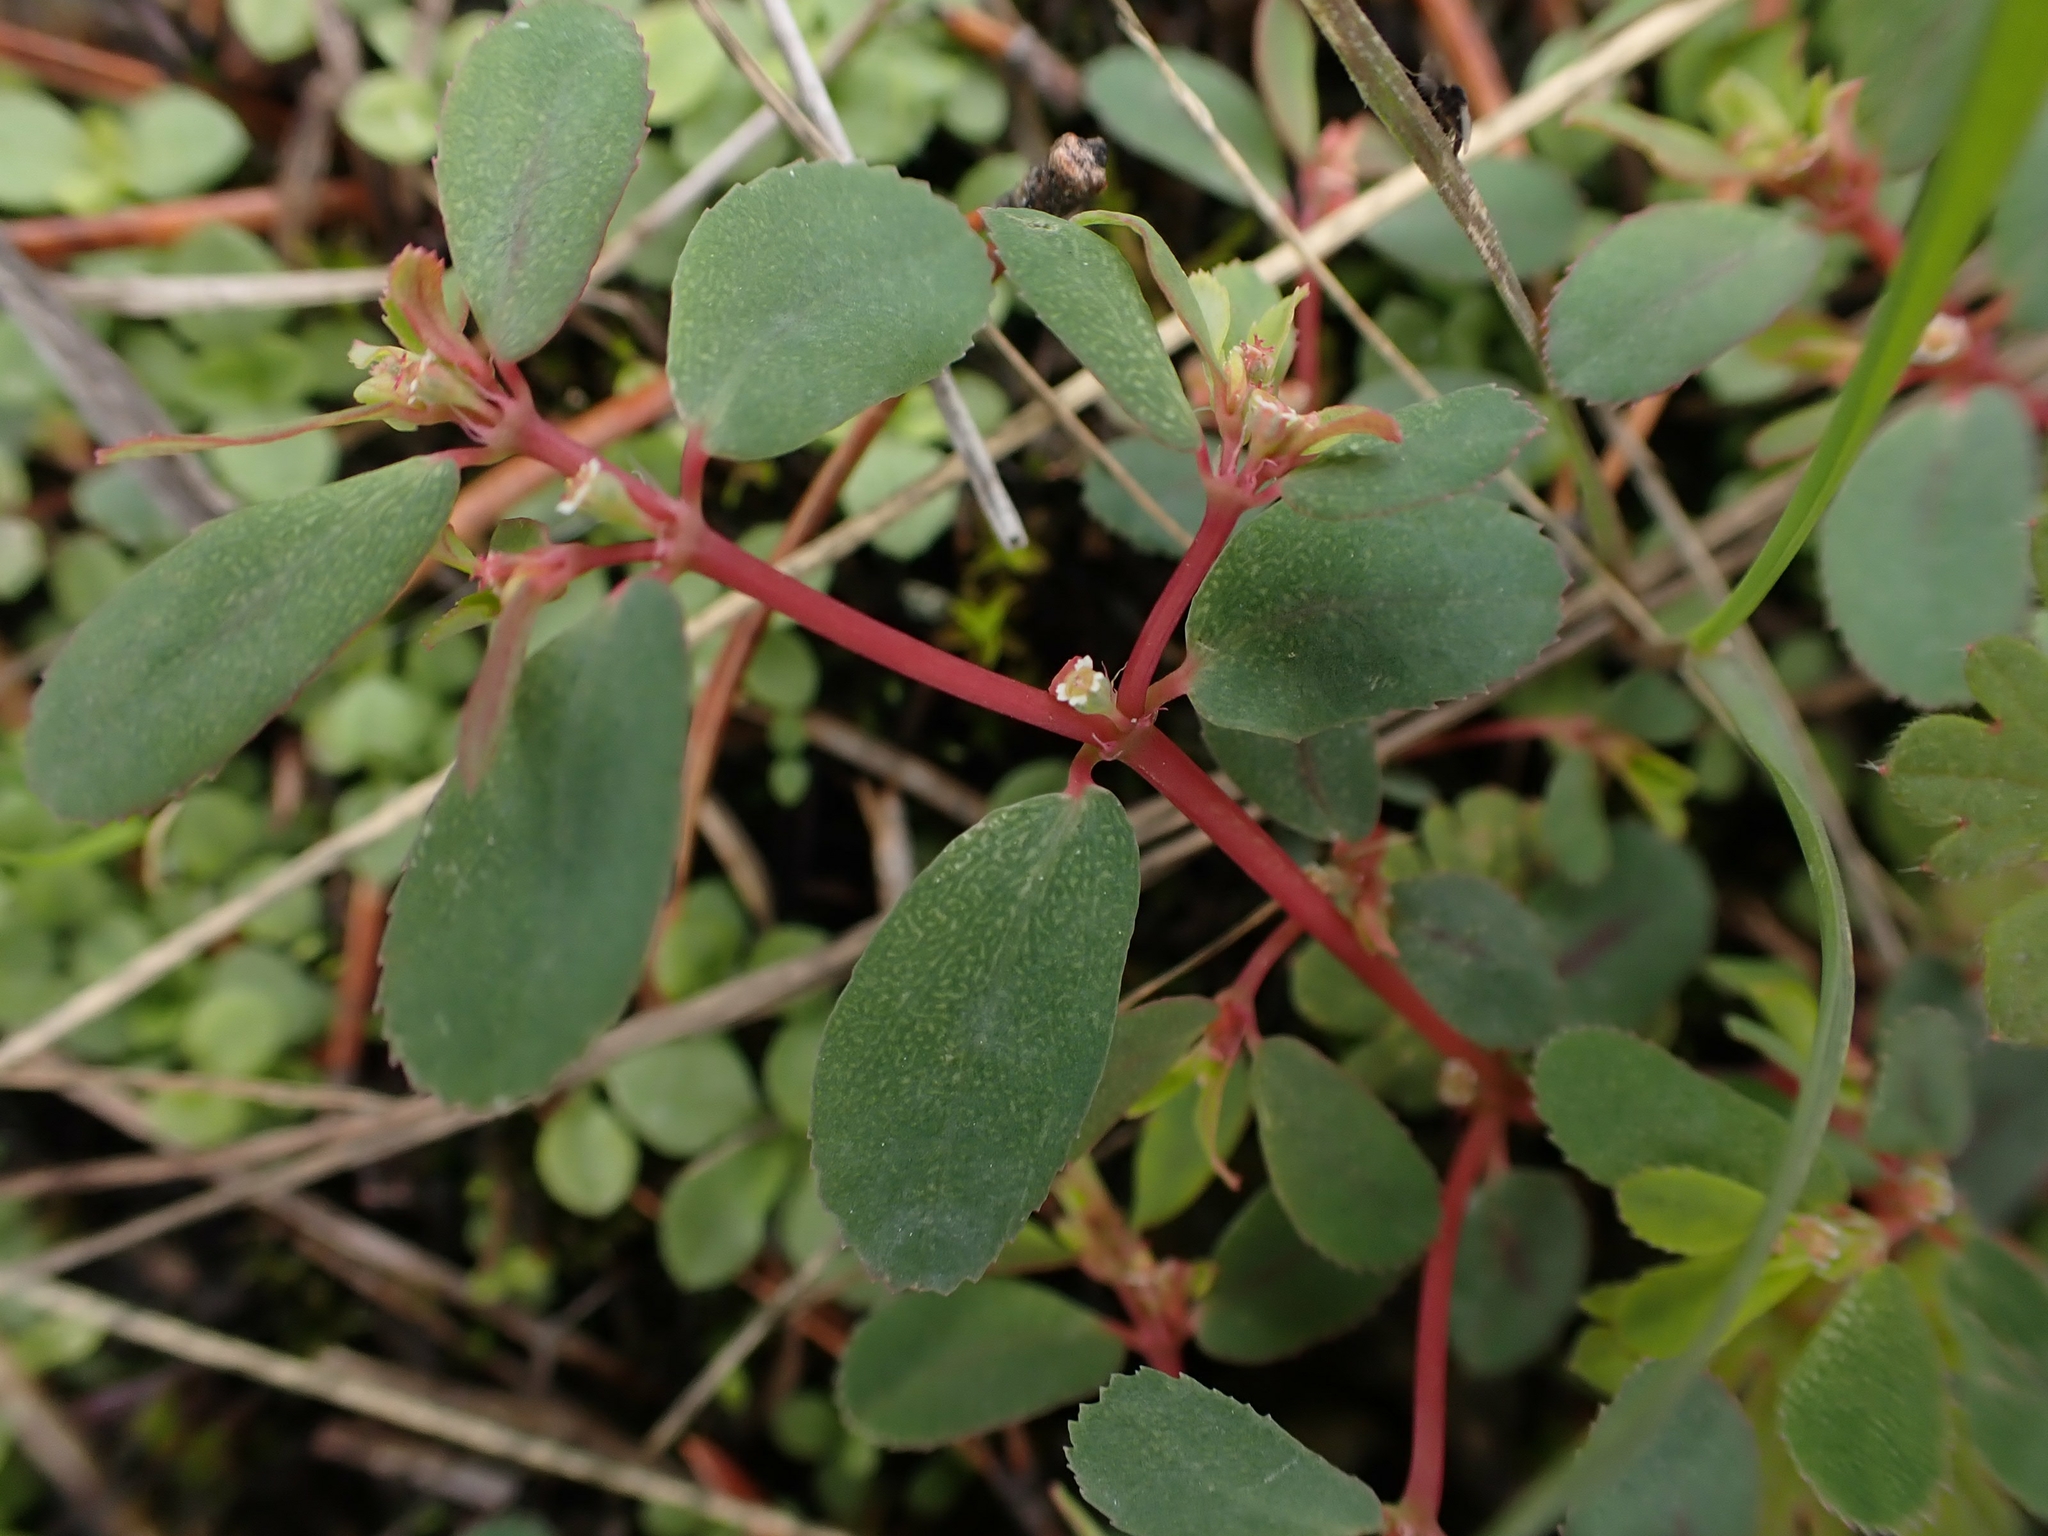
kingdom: Plantae
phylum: Tracheophyta
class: Magnoliopsida
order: Malpighiales
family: Euphorbiaceae
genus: Euphorbia
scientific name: Euphorbia serpillifolia
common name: Thyme-leaf spurge
